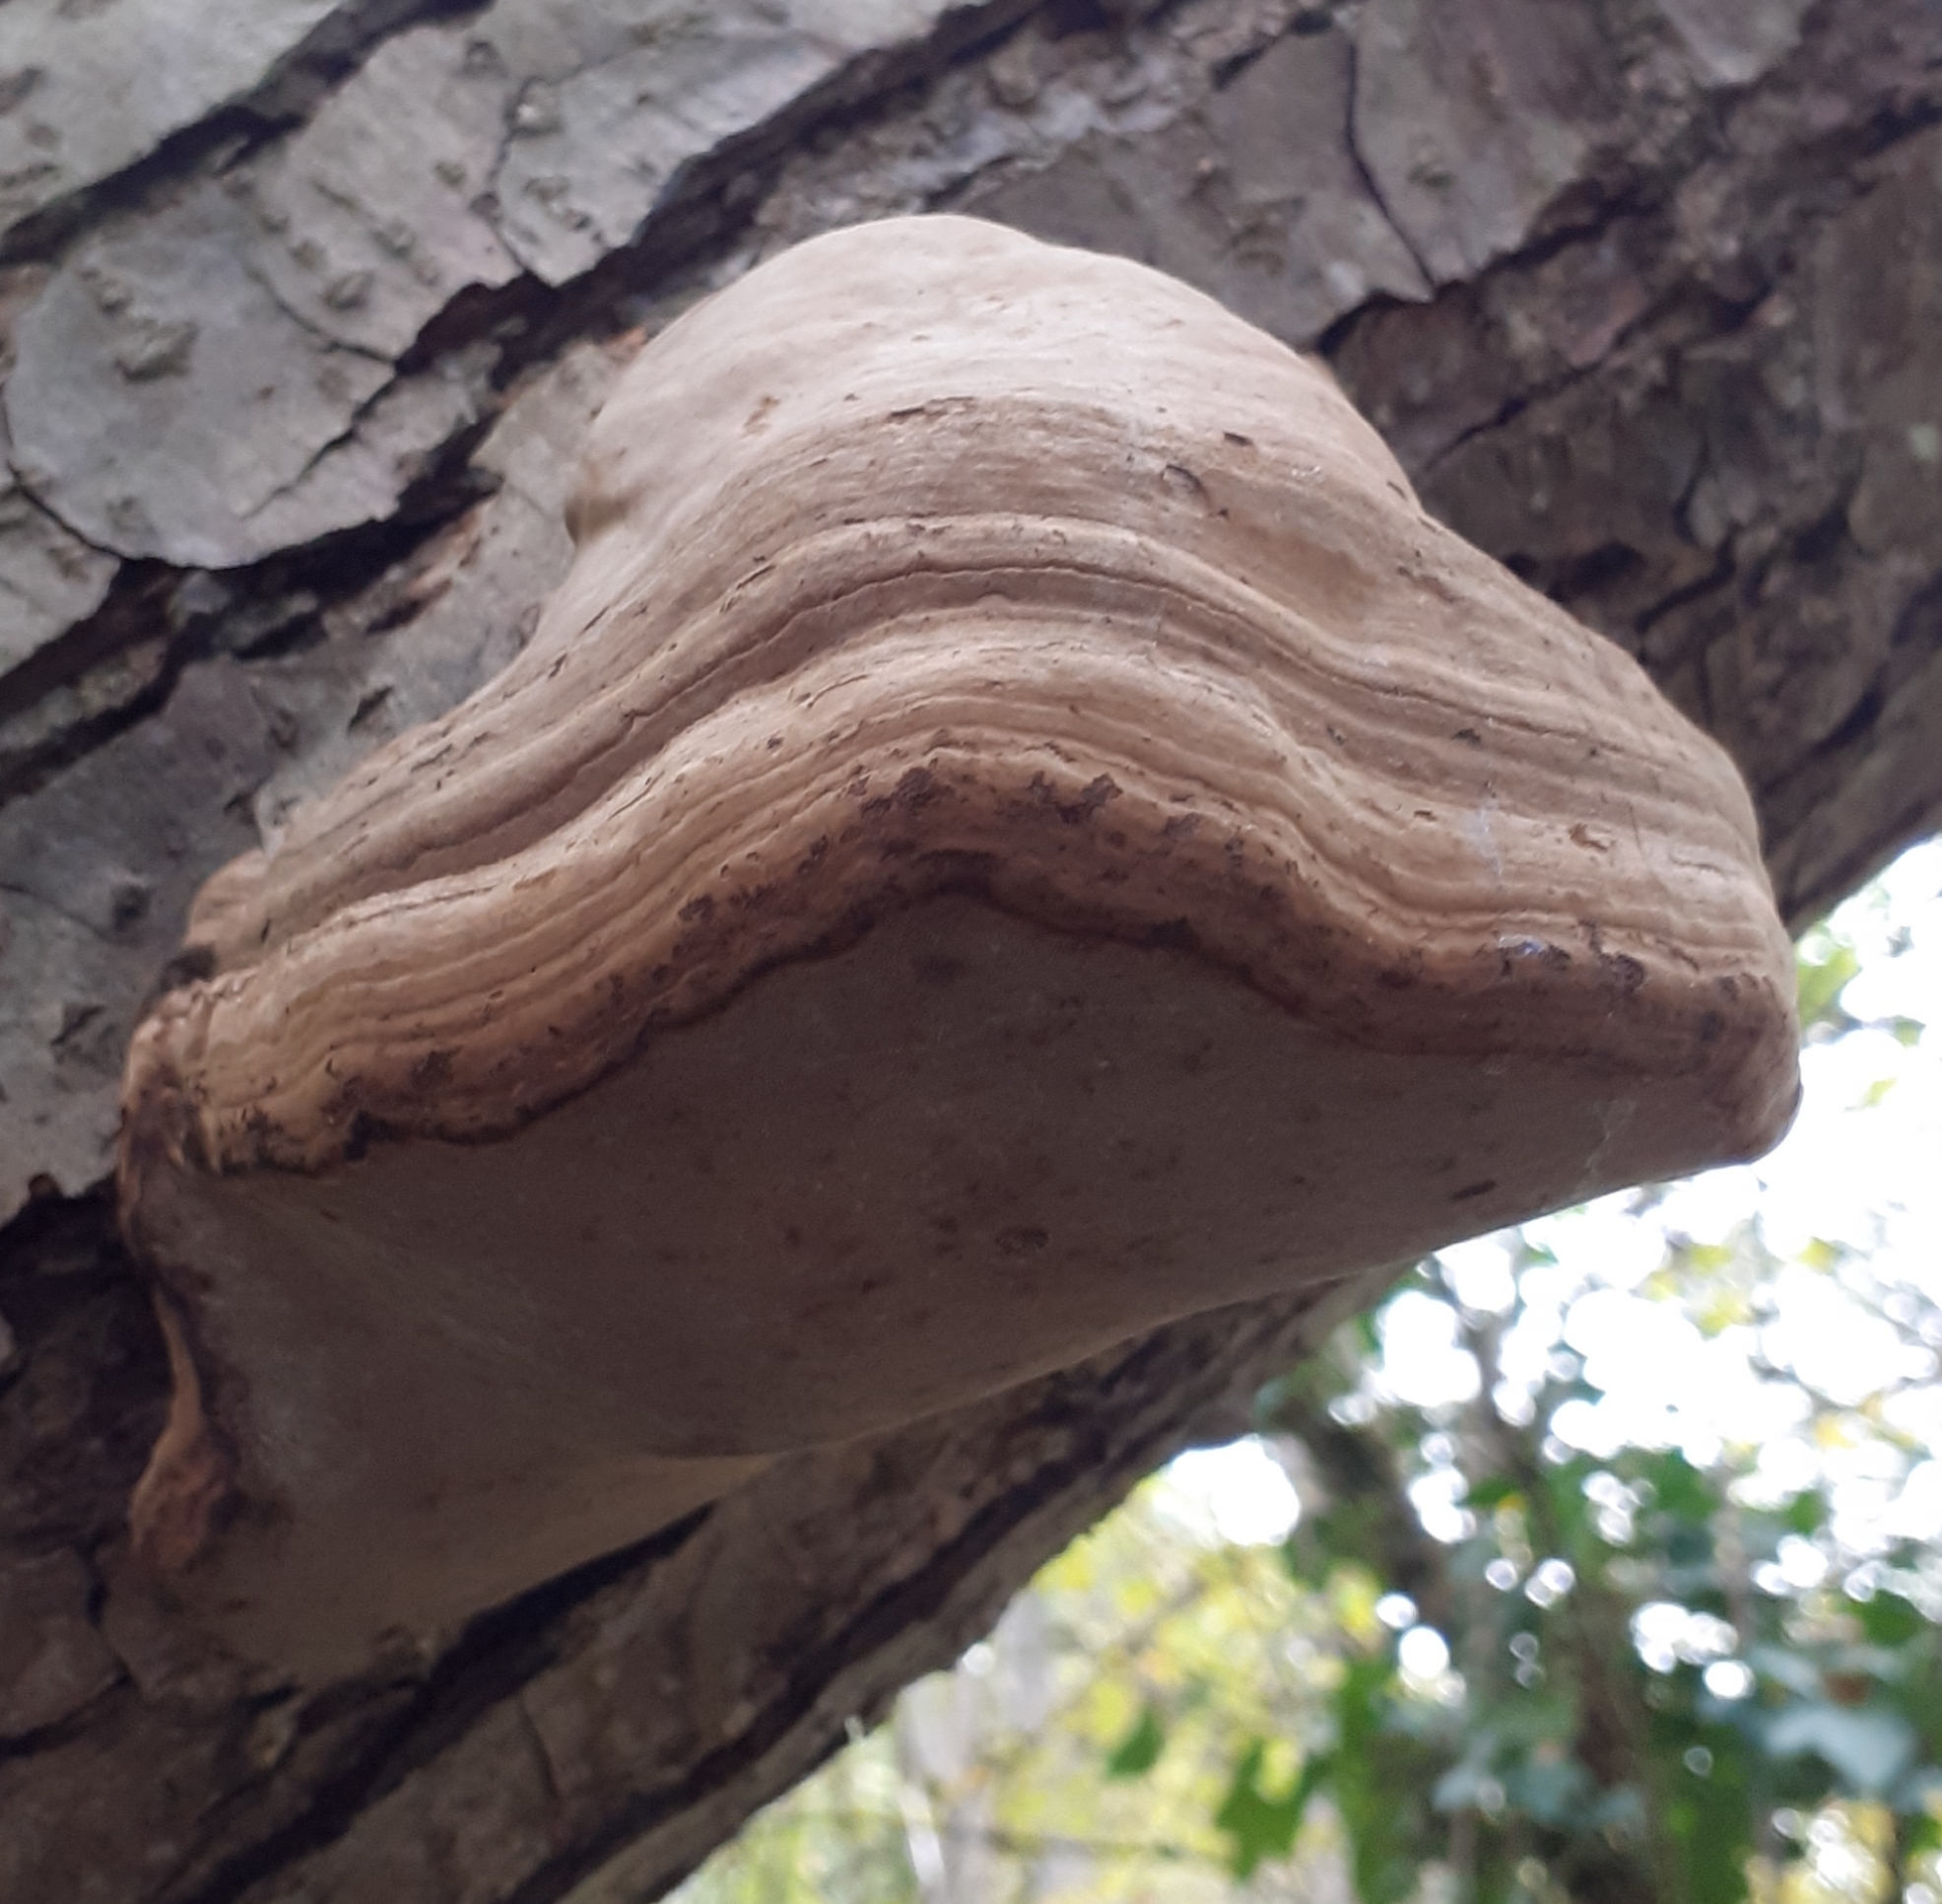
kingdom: Fungi
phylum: Basidiomycota
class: Agaricomycetes
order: Polyporales
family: Polyporaceae
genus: Fomes
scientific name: Fomes fomentarius
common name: Hoof fungus
